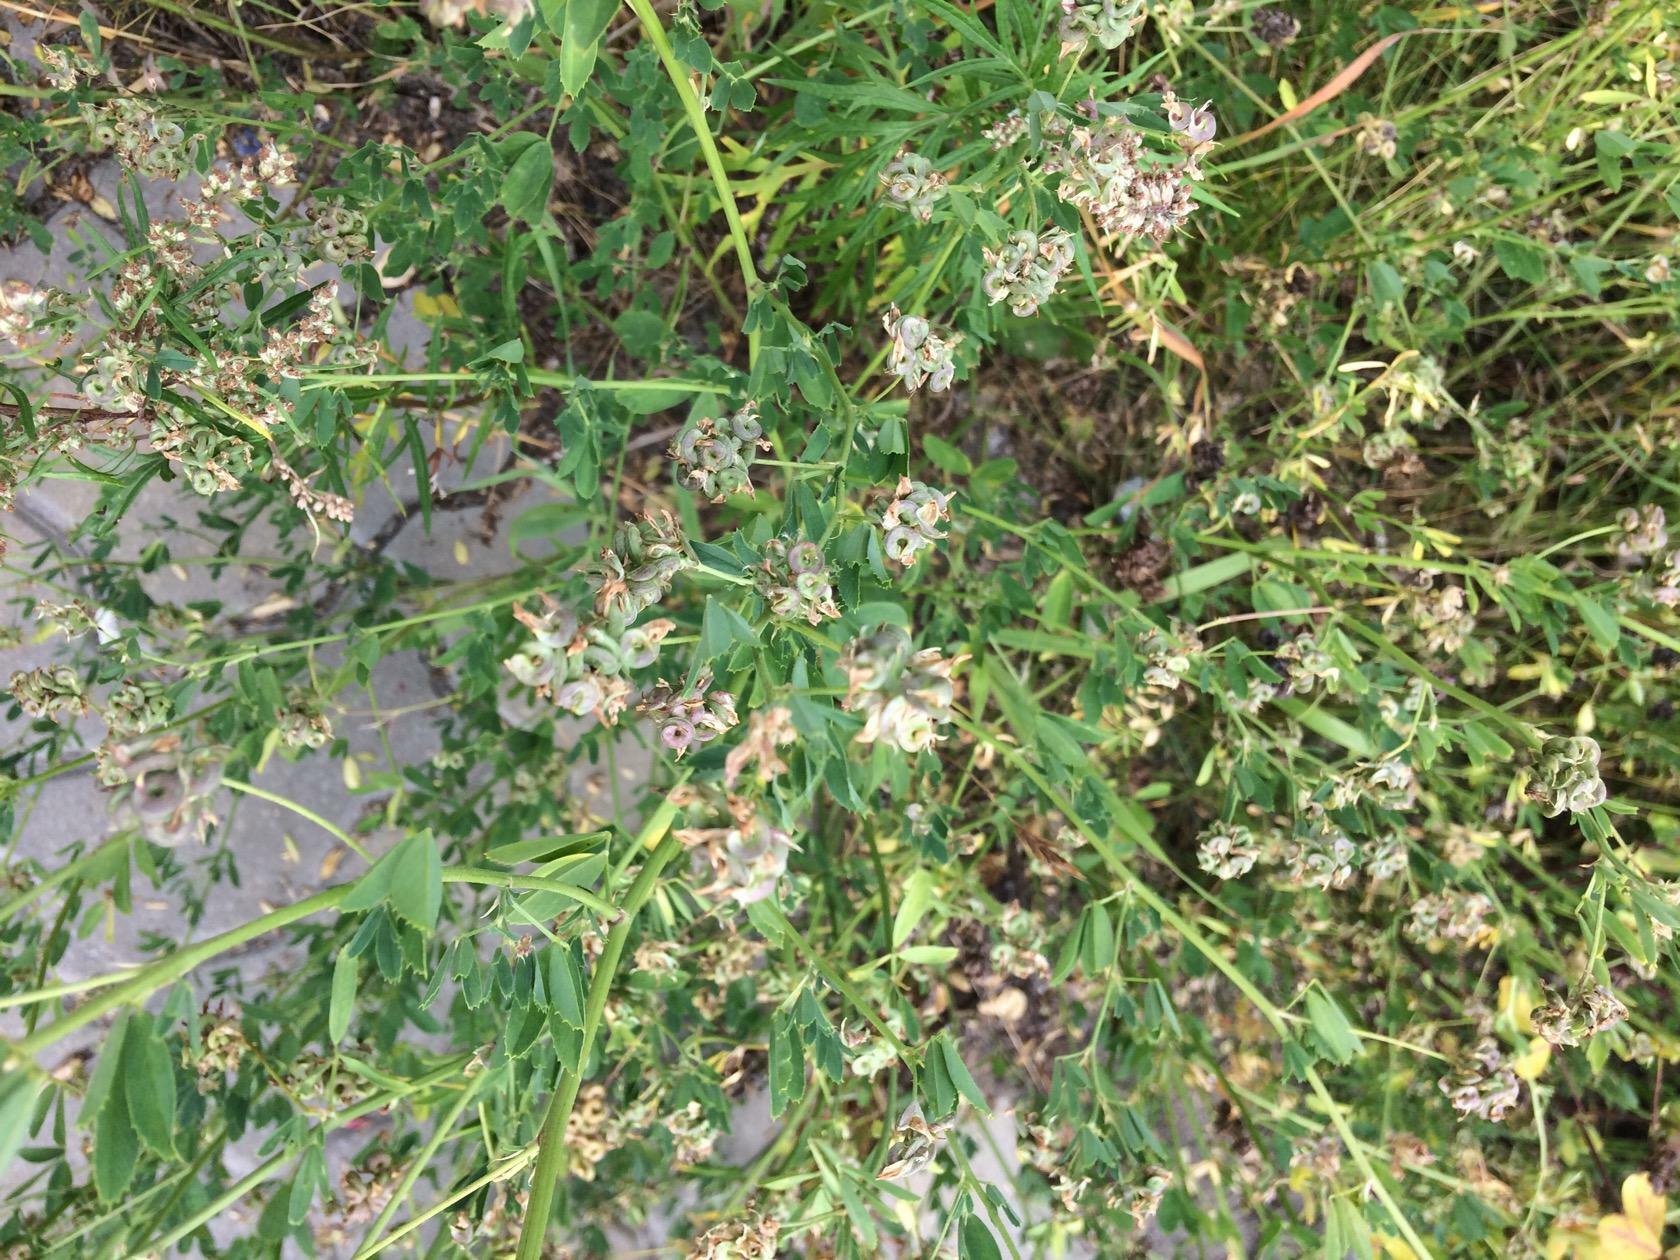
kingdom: Plantae
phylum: Tracheophyta
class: Magnoliopsida
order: Fabales
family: Fabaceae
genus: Medicago
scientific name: Medicago varia
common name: Sand lucerne
